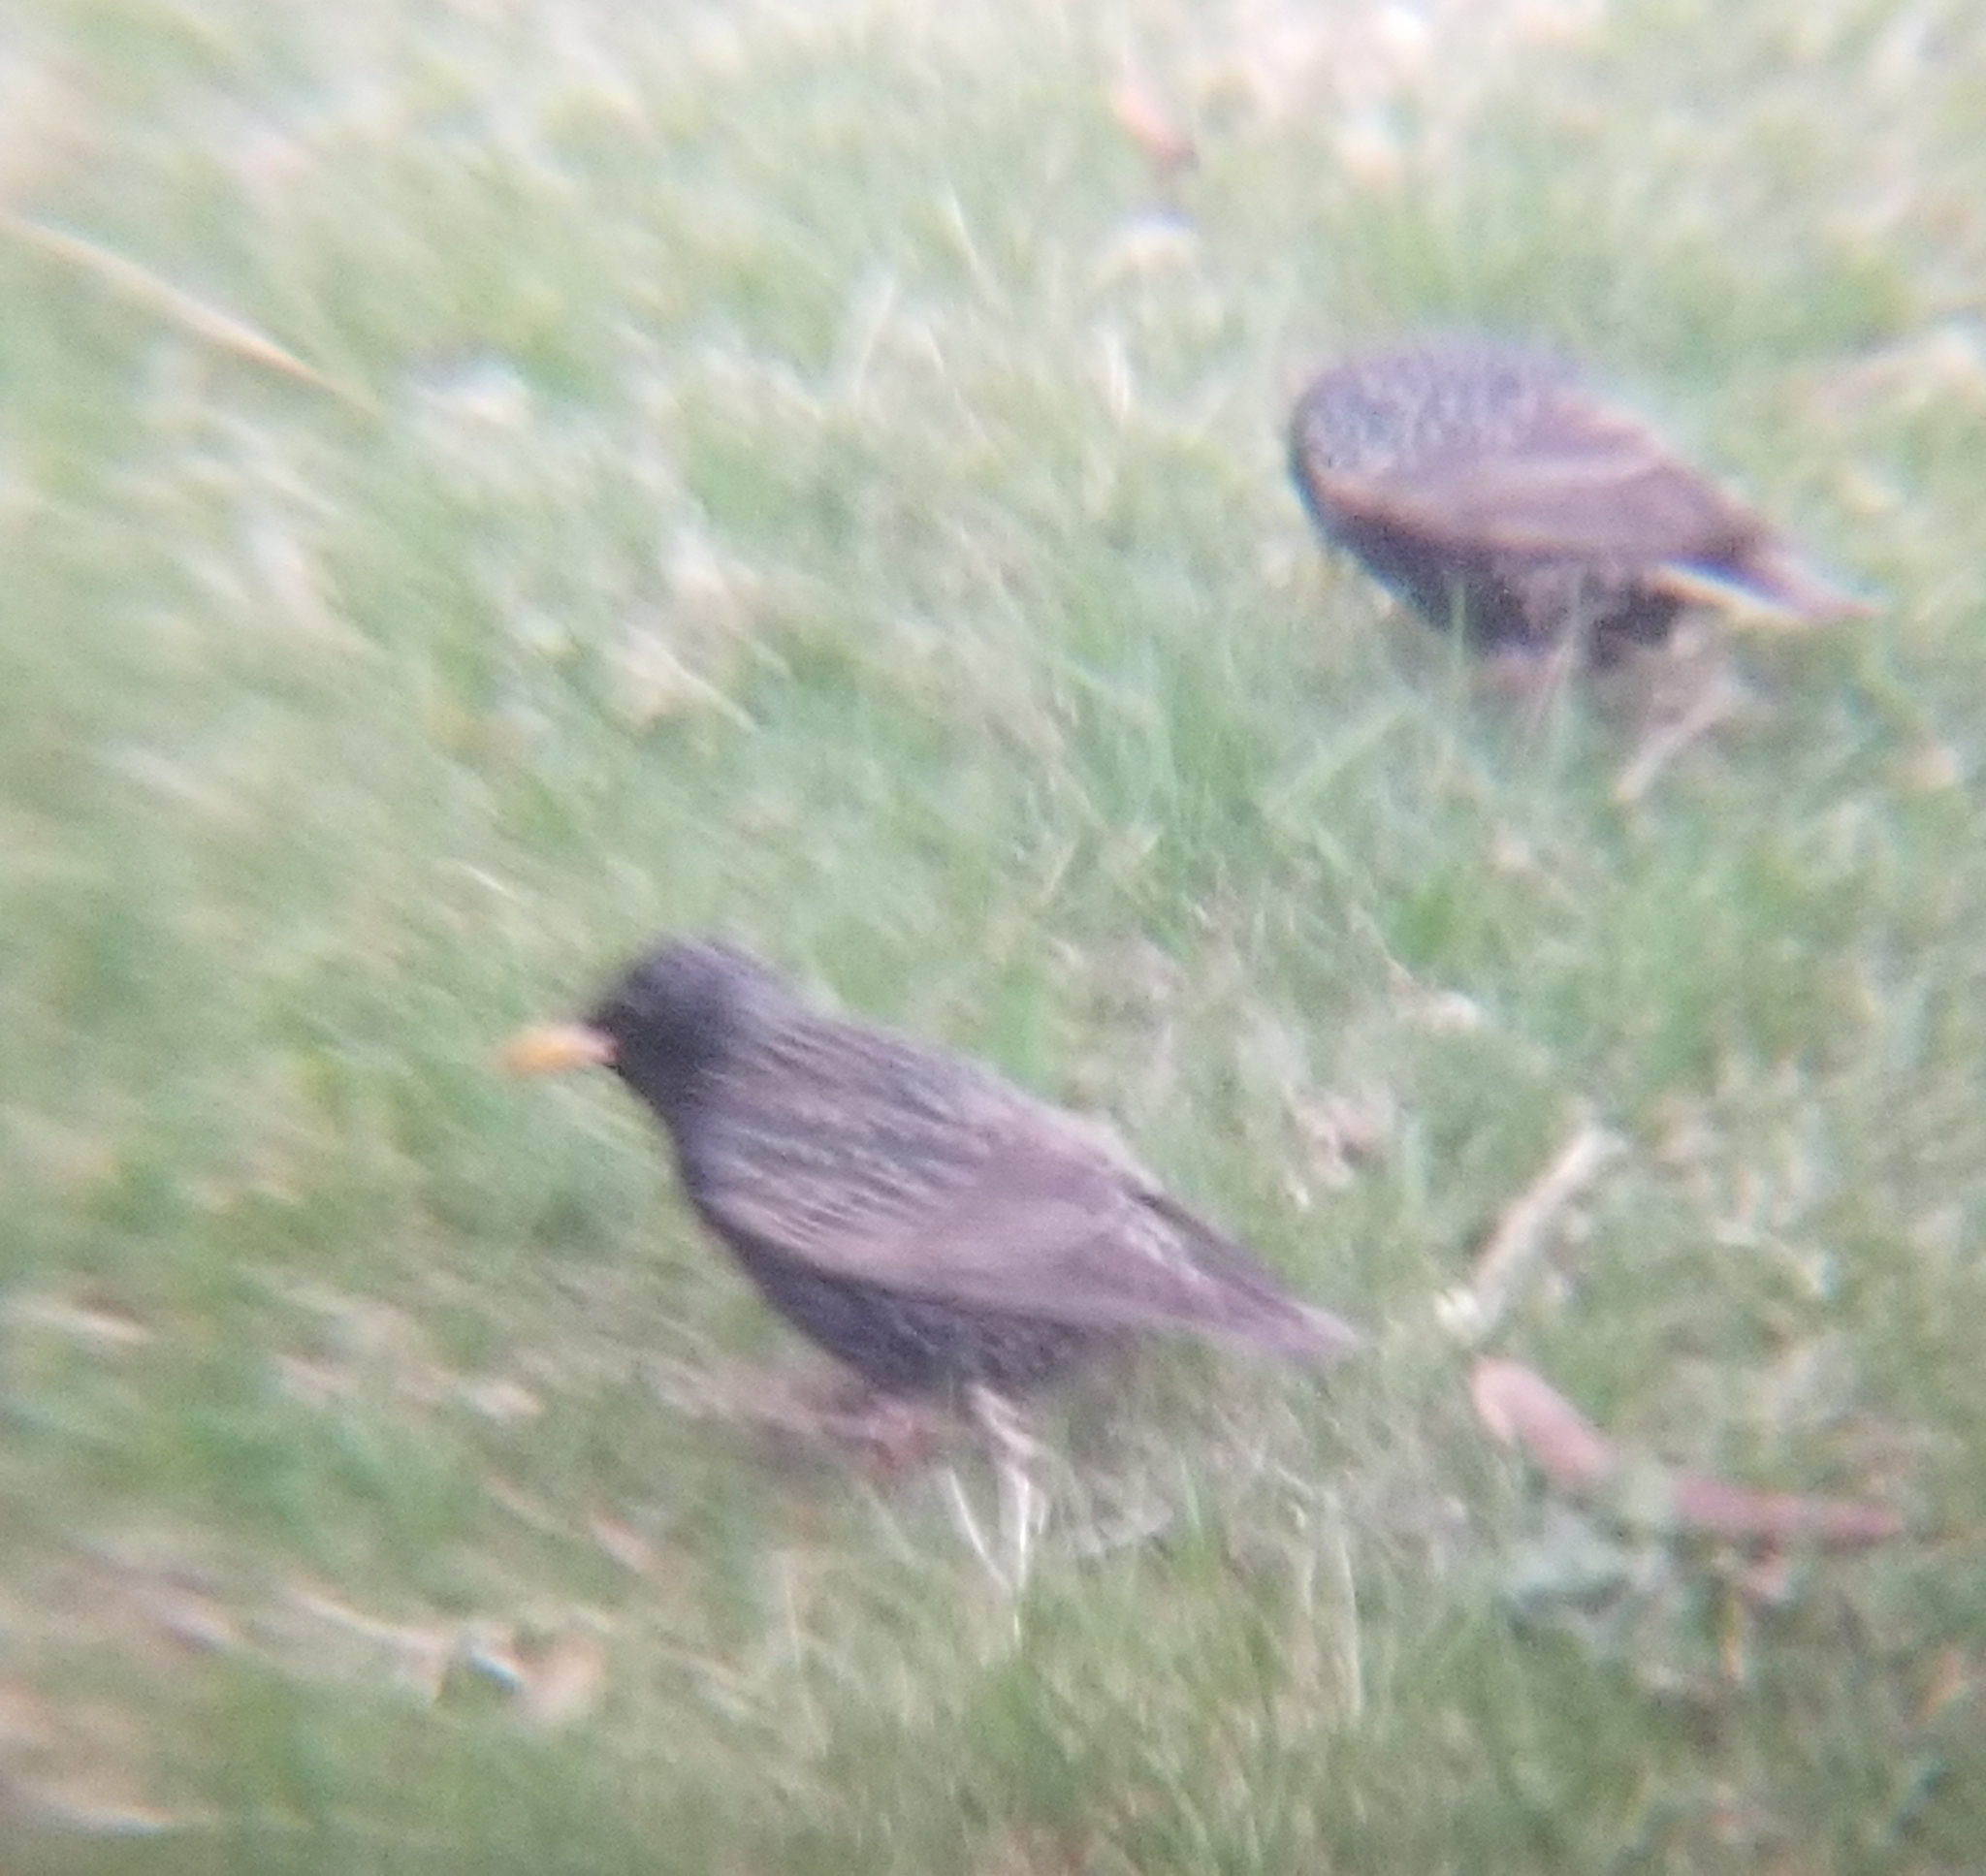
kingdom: Animalia
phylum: Chordata
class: Aves
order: Passeriformes
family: Sturnidae
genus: Sturnus
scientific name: Sturnus vulgaris
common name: Common starling
